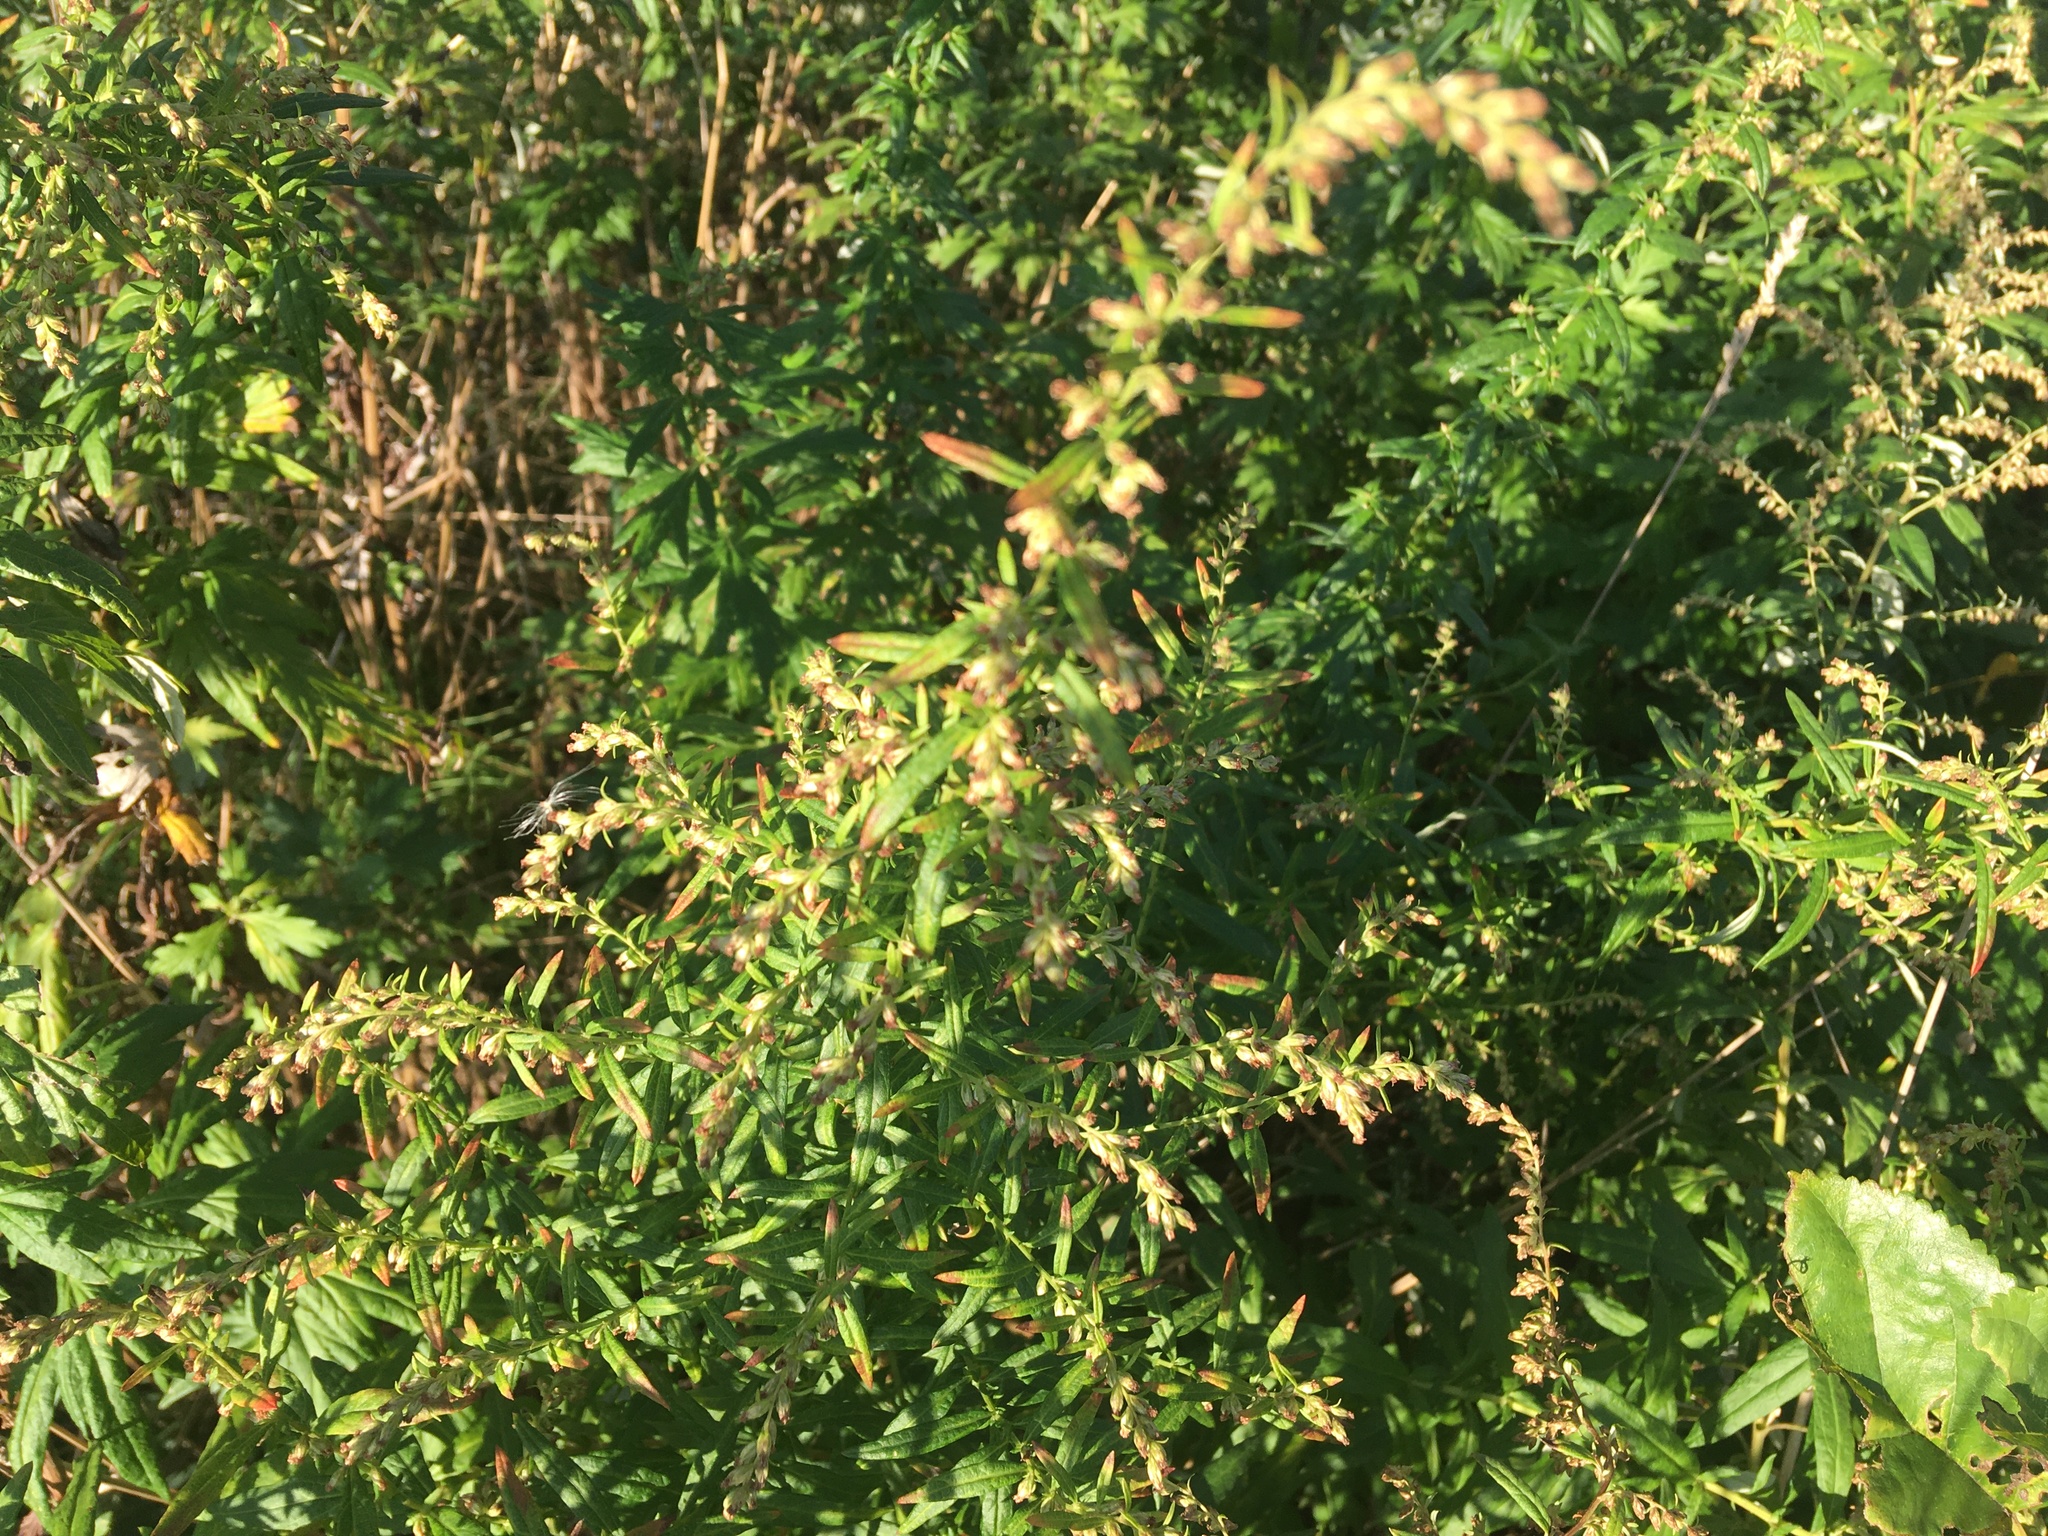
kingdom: Plantae
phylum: Tracheophyta
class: Magnoliopsida
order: Asterales
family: Asteraceae
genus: Artemisia
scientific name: Artemisia vulgaris
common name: Mugwort
